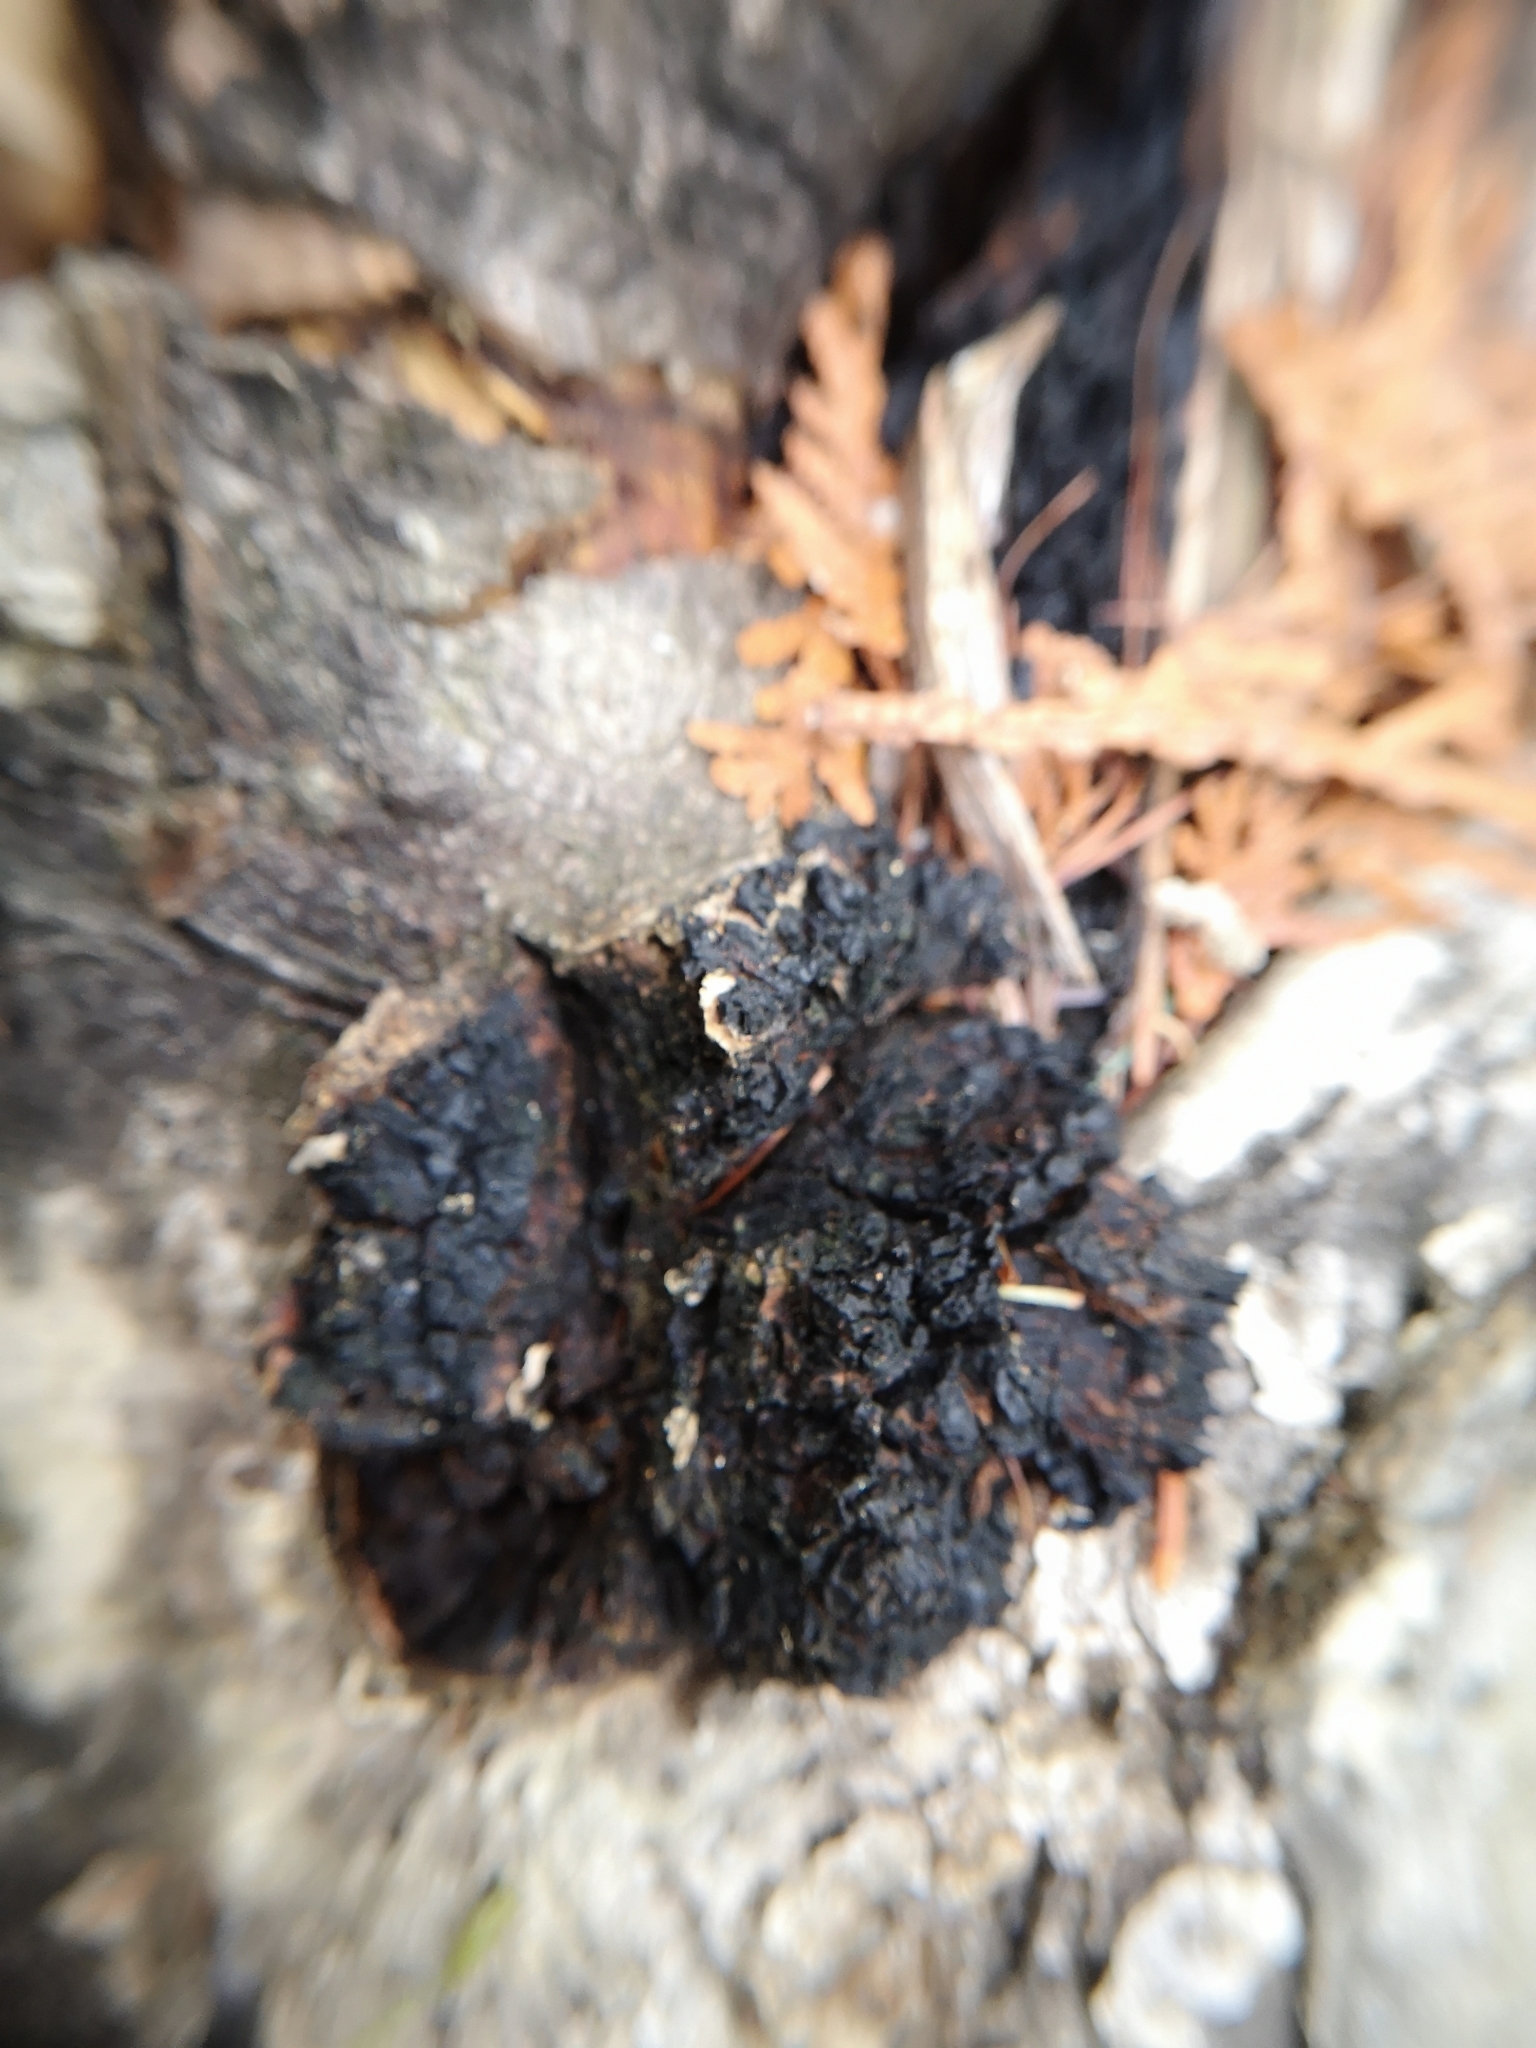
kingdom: Fungi
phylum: Basidiomycota
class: Agaricomycetes
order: Hymenochaetales
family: Hymenochaetaceae
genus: Inonotus
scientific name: Inonotus obliquus
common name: Chaga
